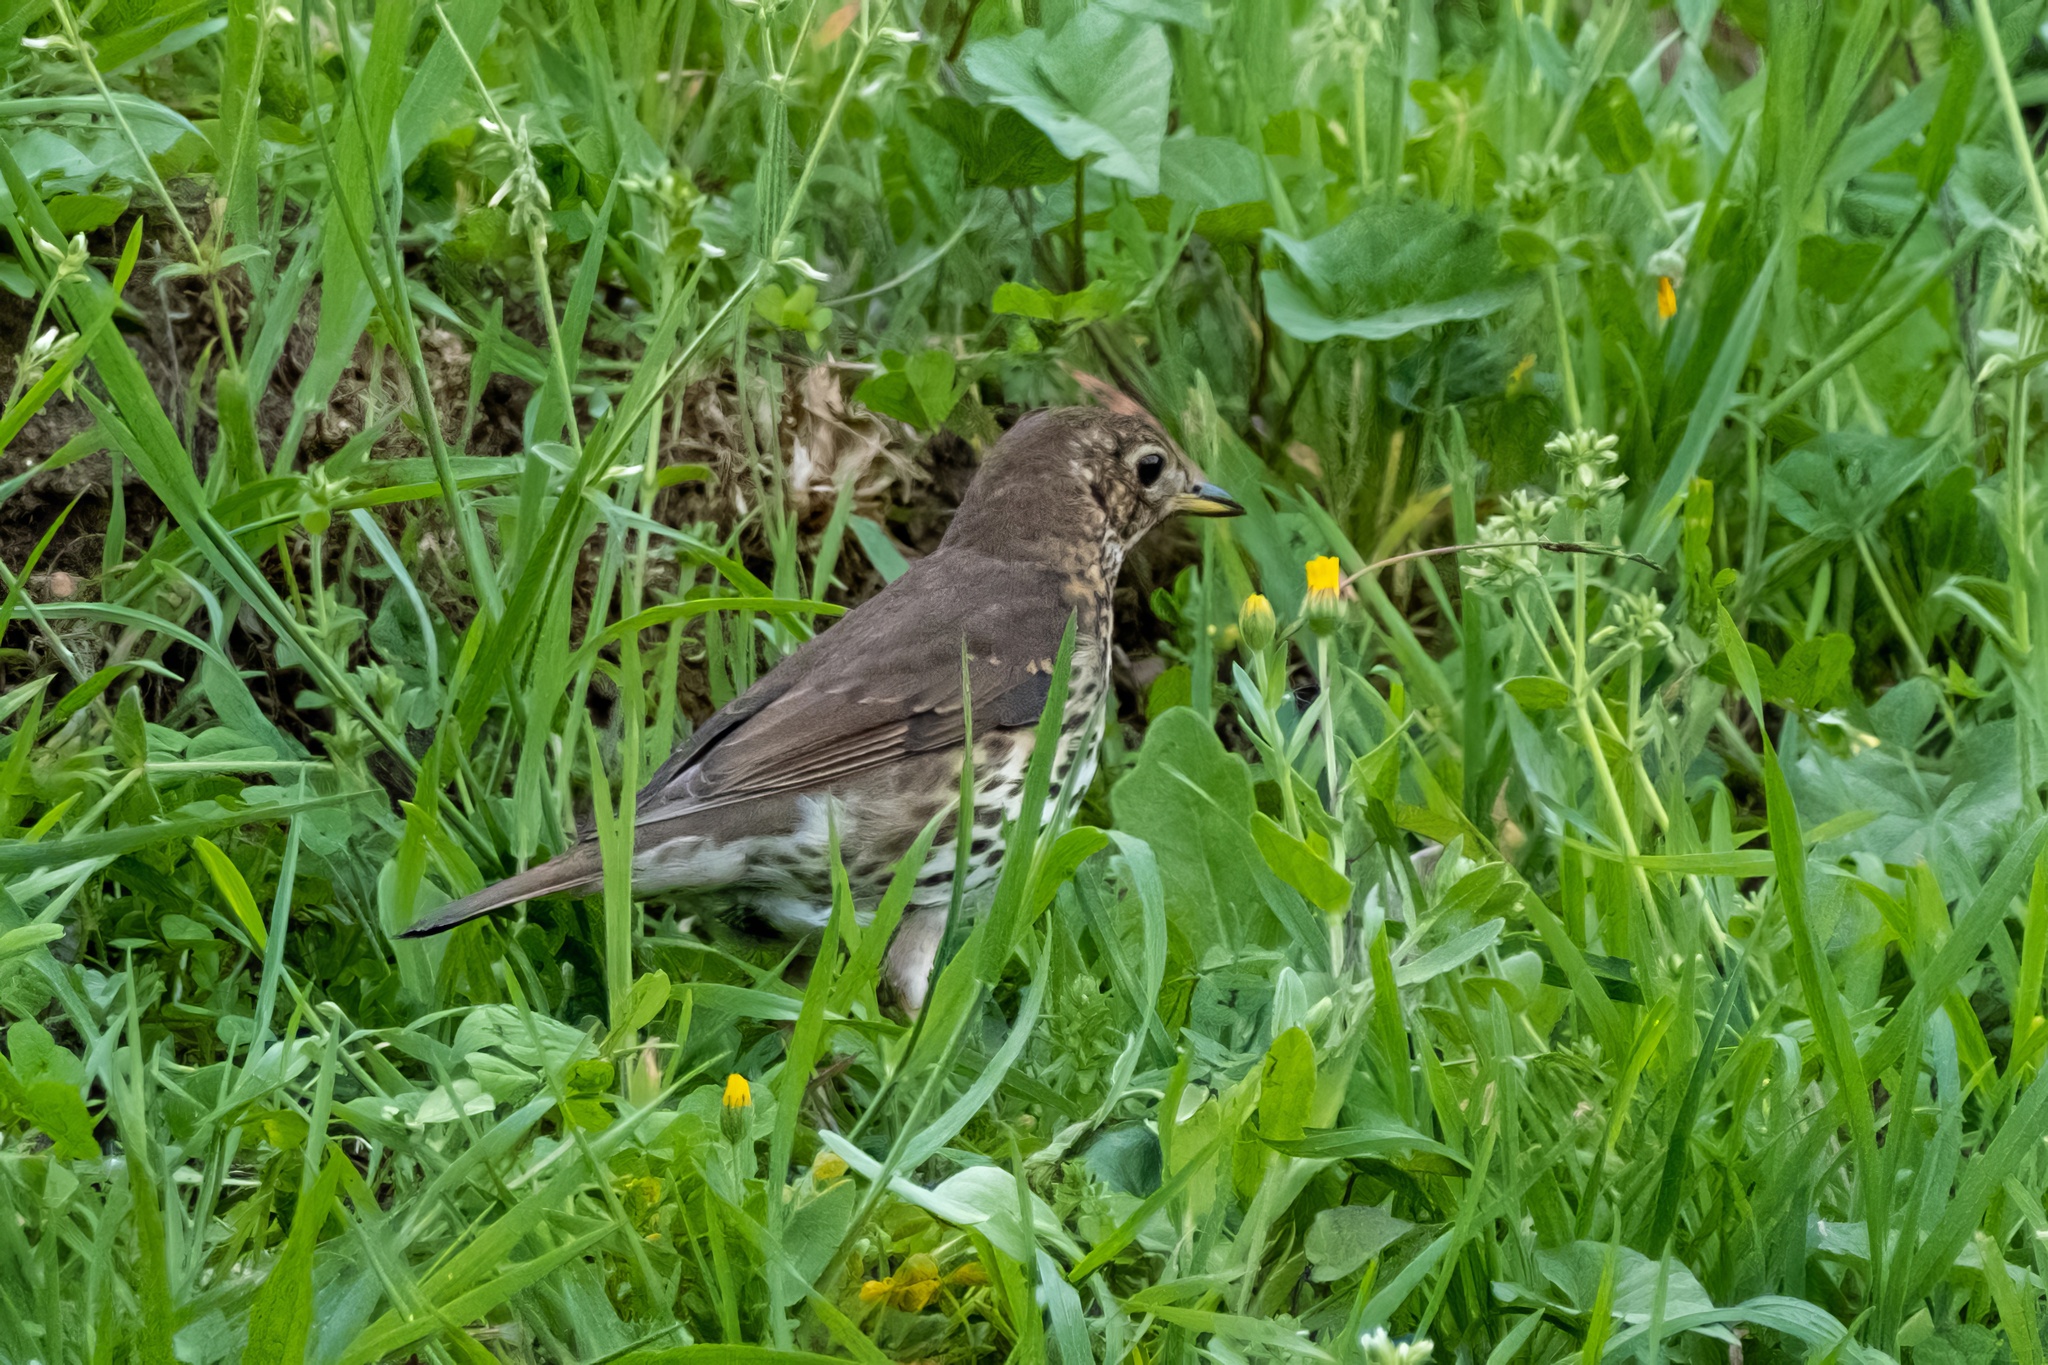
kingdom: Animalia
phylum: Chordata
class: Aves
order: Passeriformes
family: Turdidae
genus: Turdus
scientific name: Turdus philomelos
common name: Song thrush
